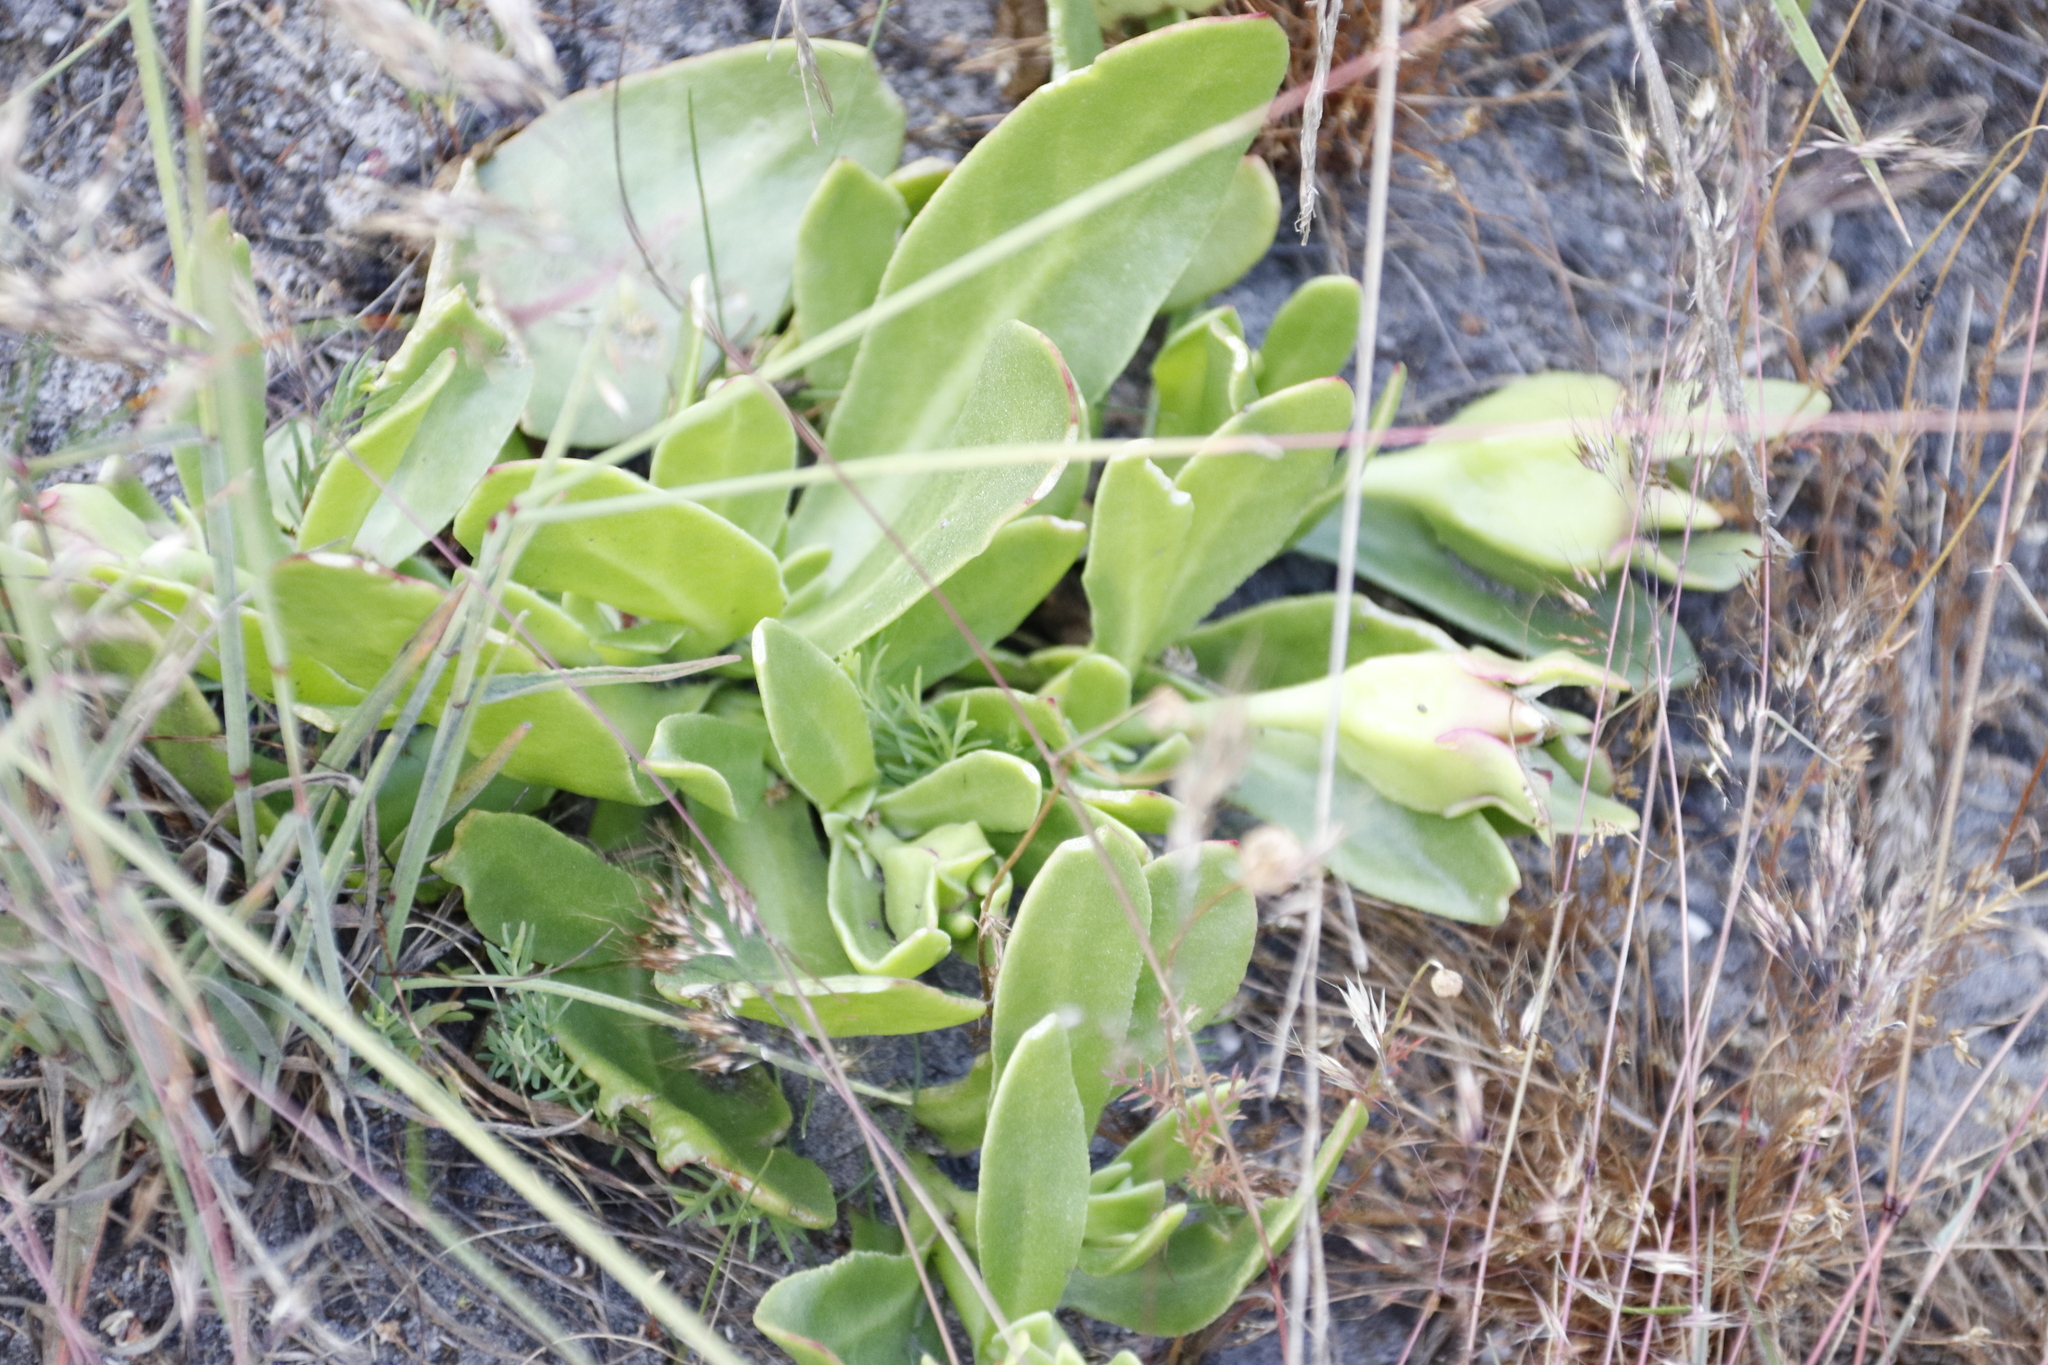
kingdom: Plantae
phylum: Tracheophyta
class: Magnoliopsida
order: Caryophyllales
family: Aizoaceae
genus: Skiatophytum
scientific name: Skiatophytum tripolium
